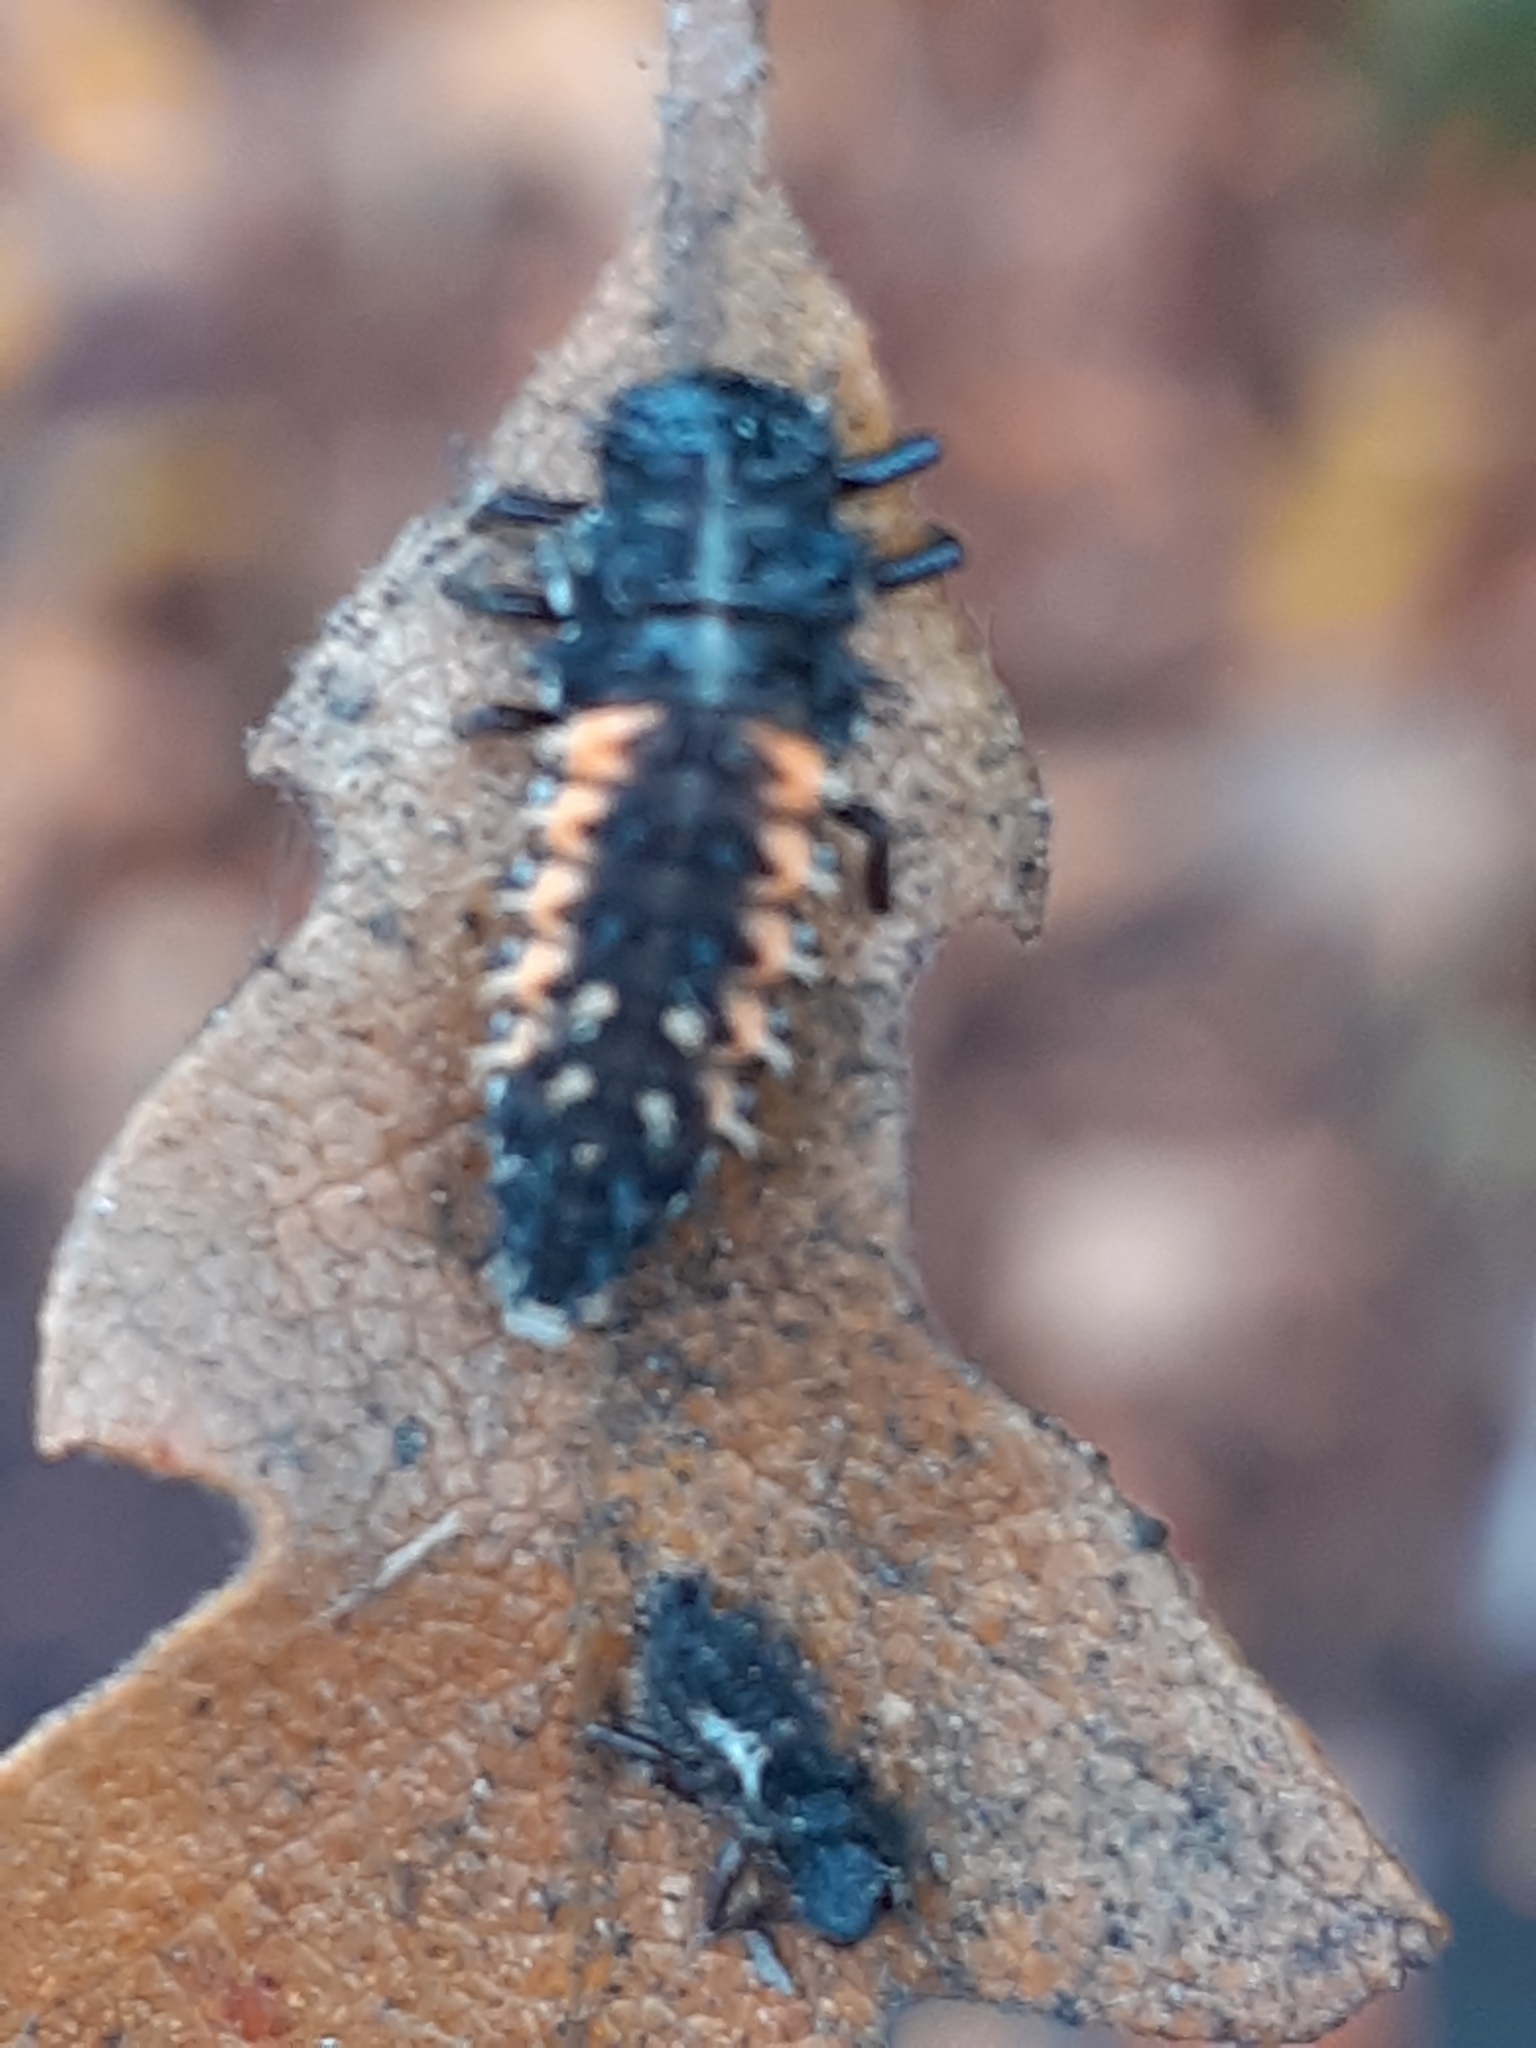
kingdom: Animalia
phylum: Arthropoda
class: Insecta
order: Coleoptera
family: Coccinellidae
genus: Harmonia
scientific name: Harmonia axyridis
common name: Harlequin ladybird
